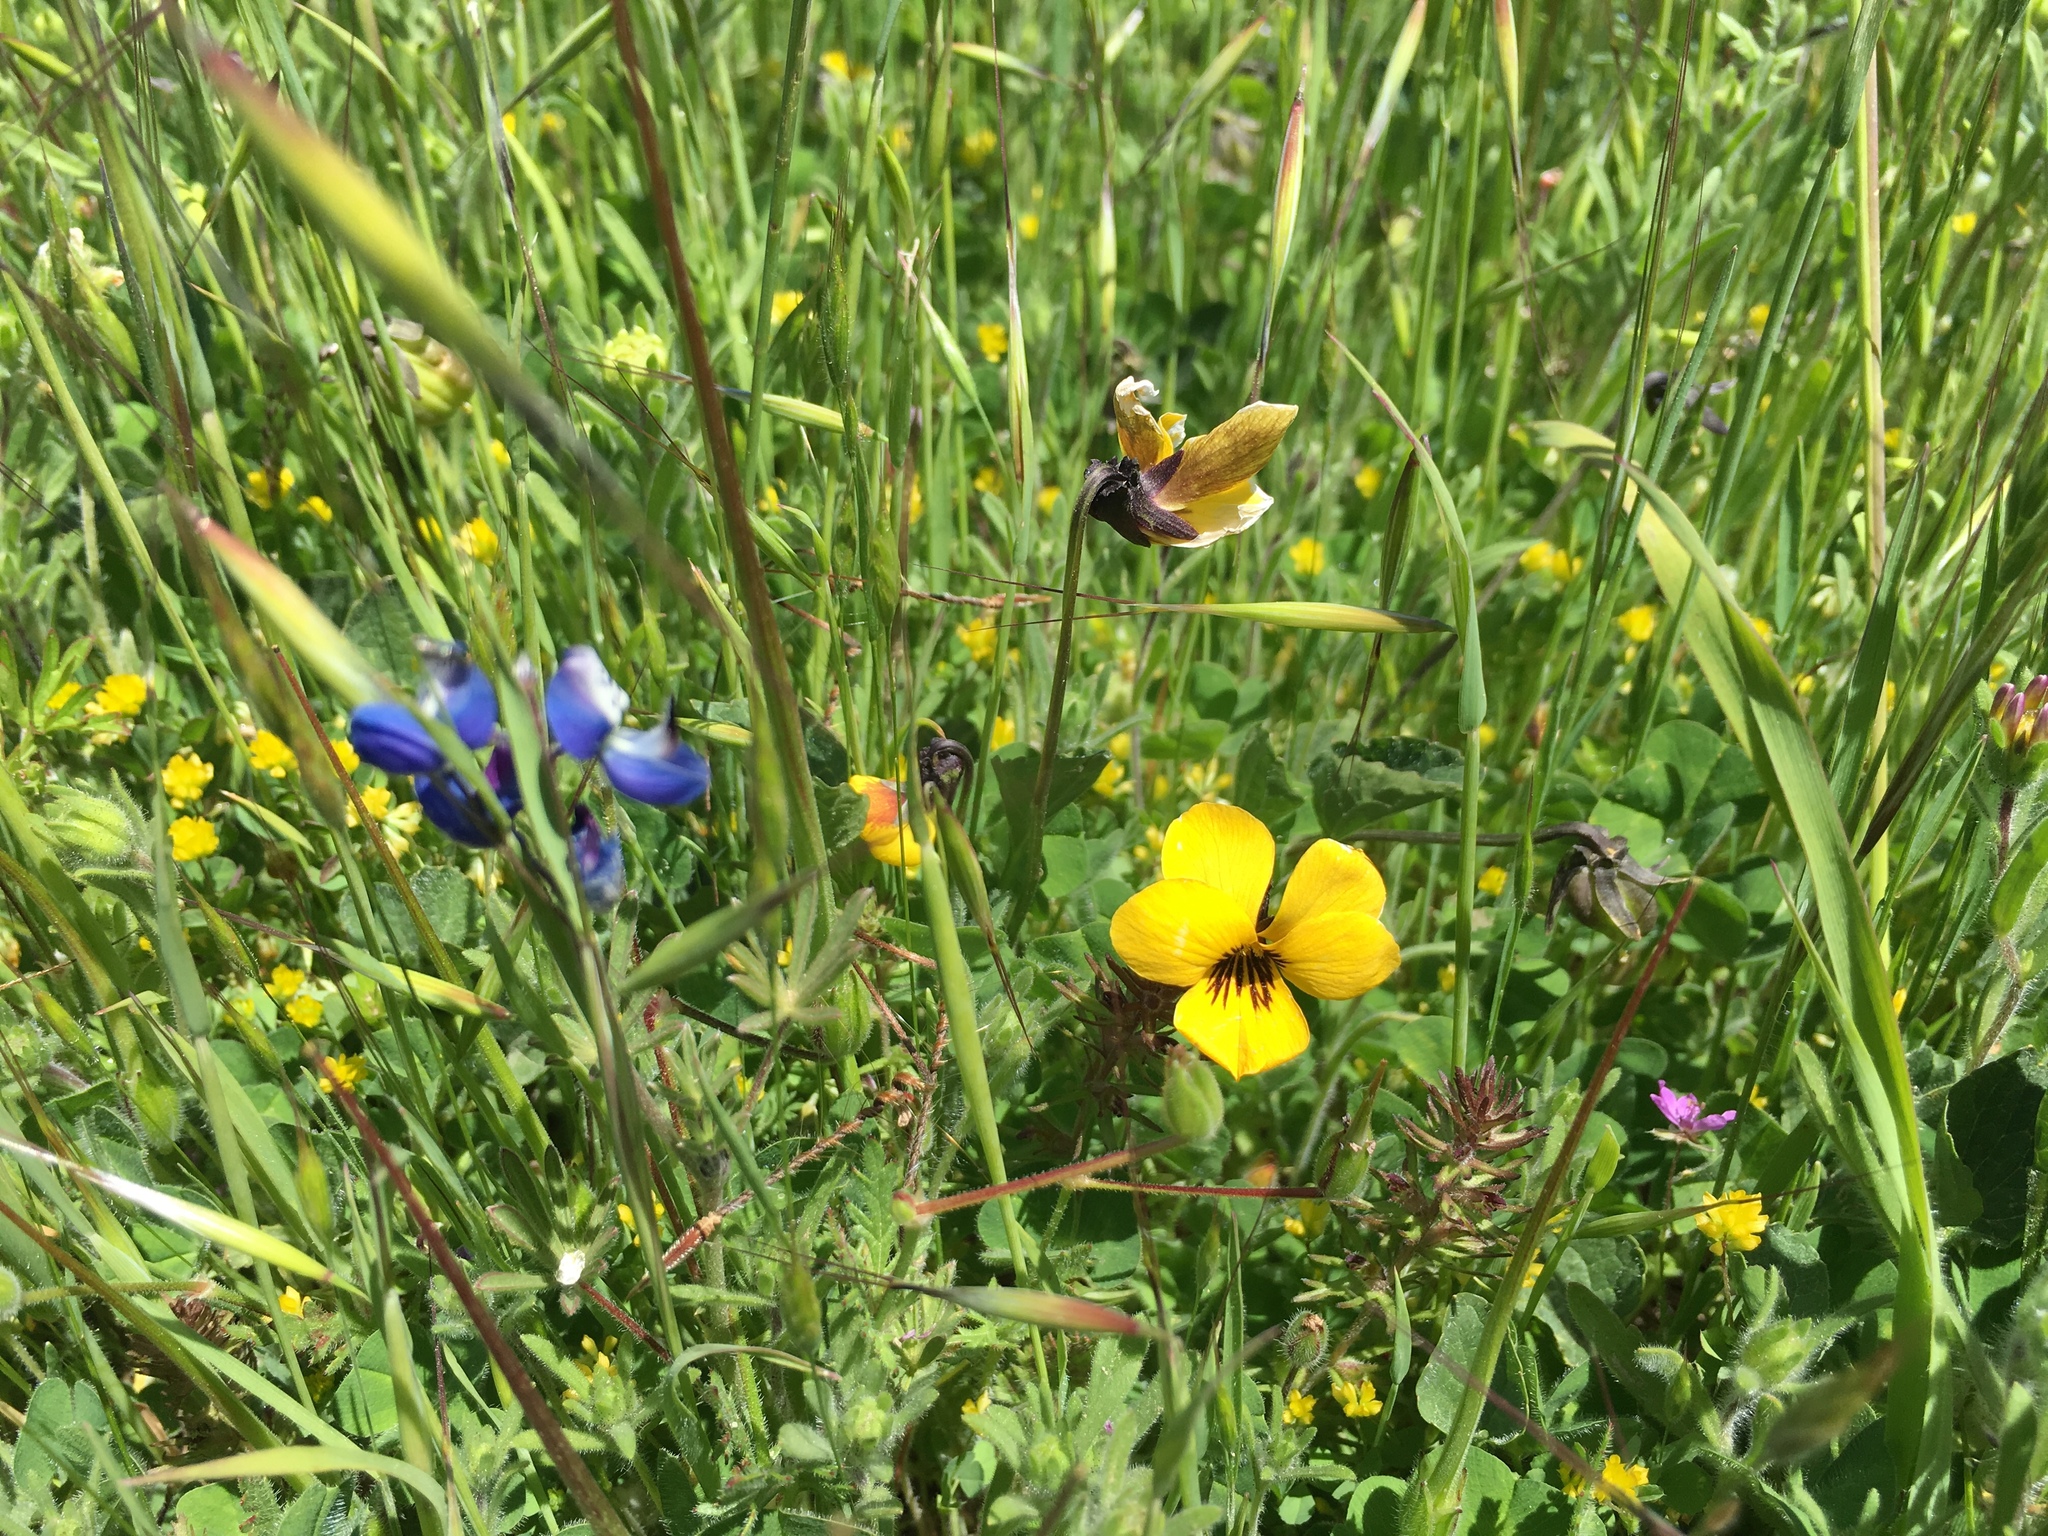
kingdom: Plantae
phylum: Tracheophyta
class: Magnoliopsida
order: Malpighiales
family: Violaceae
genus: Viola
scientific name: Viola pedunculata
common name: California golden violet
